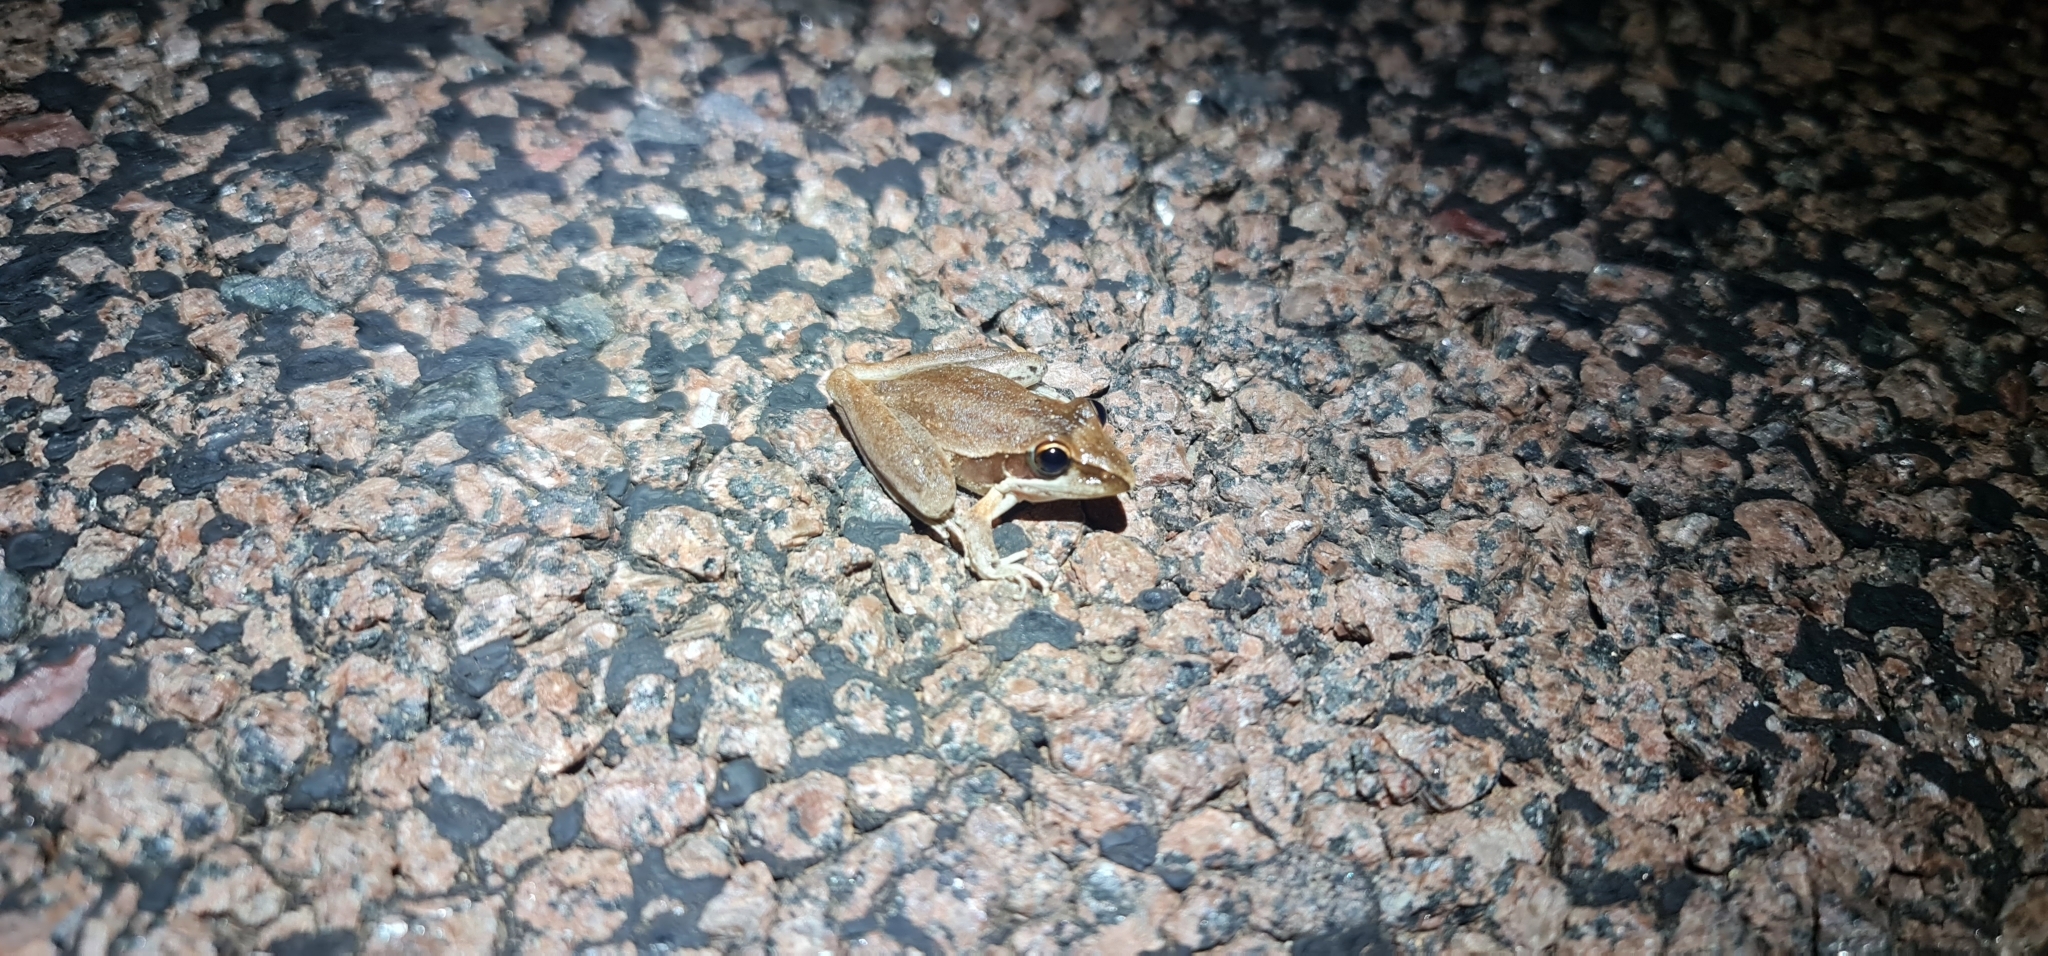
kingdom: Animalia
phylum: Chordata
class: Amphibia
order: Anura
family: Pelodryadidae
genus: Litoria
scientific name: Litoria watjulumensis
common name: Wotjulum frog
